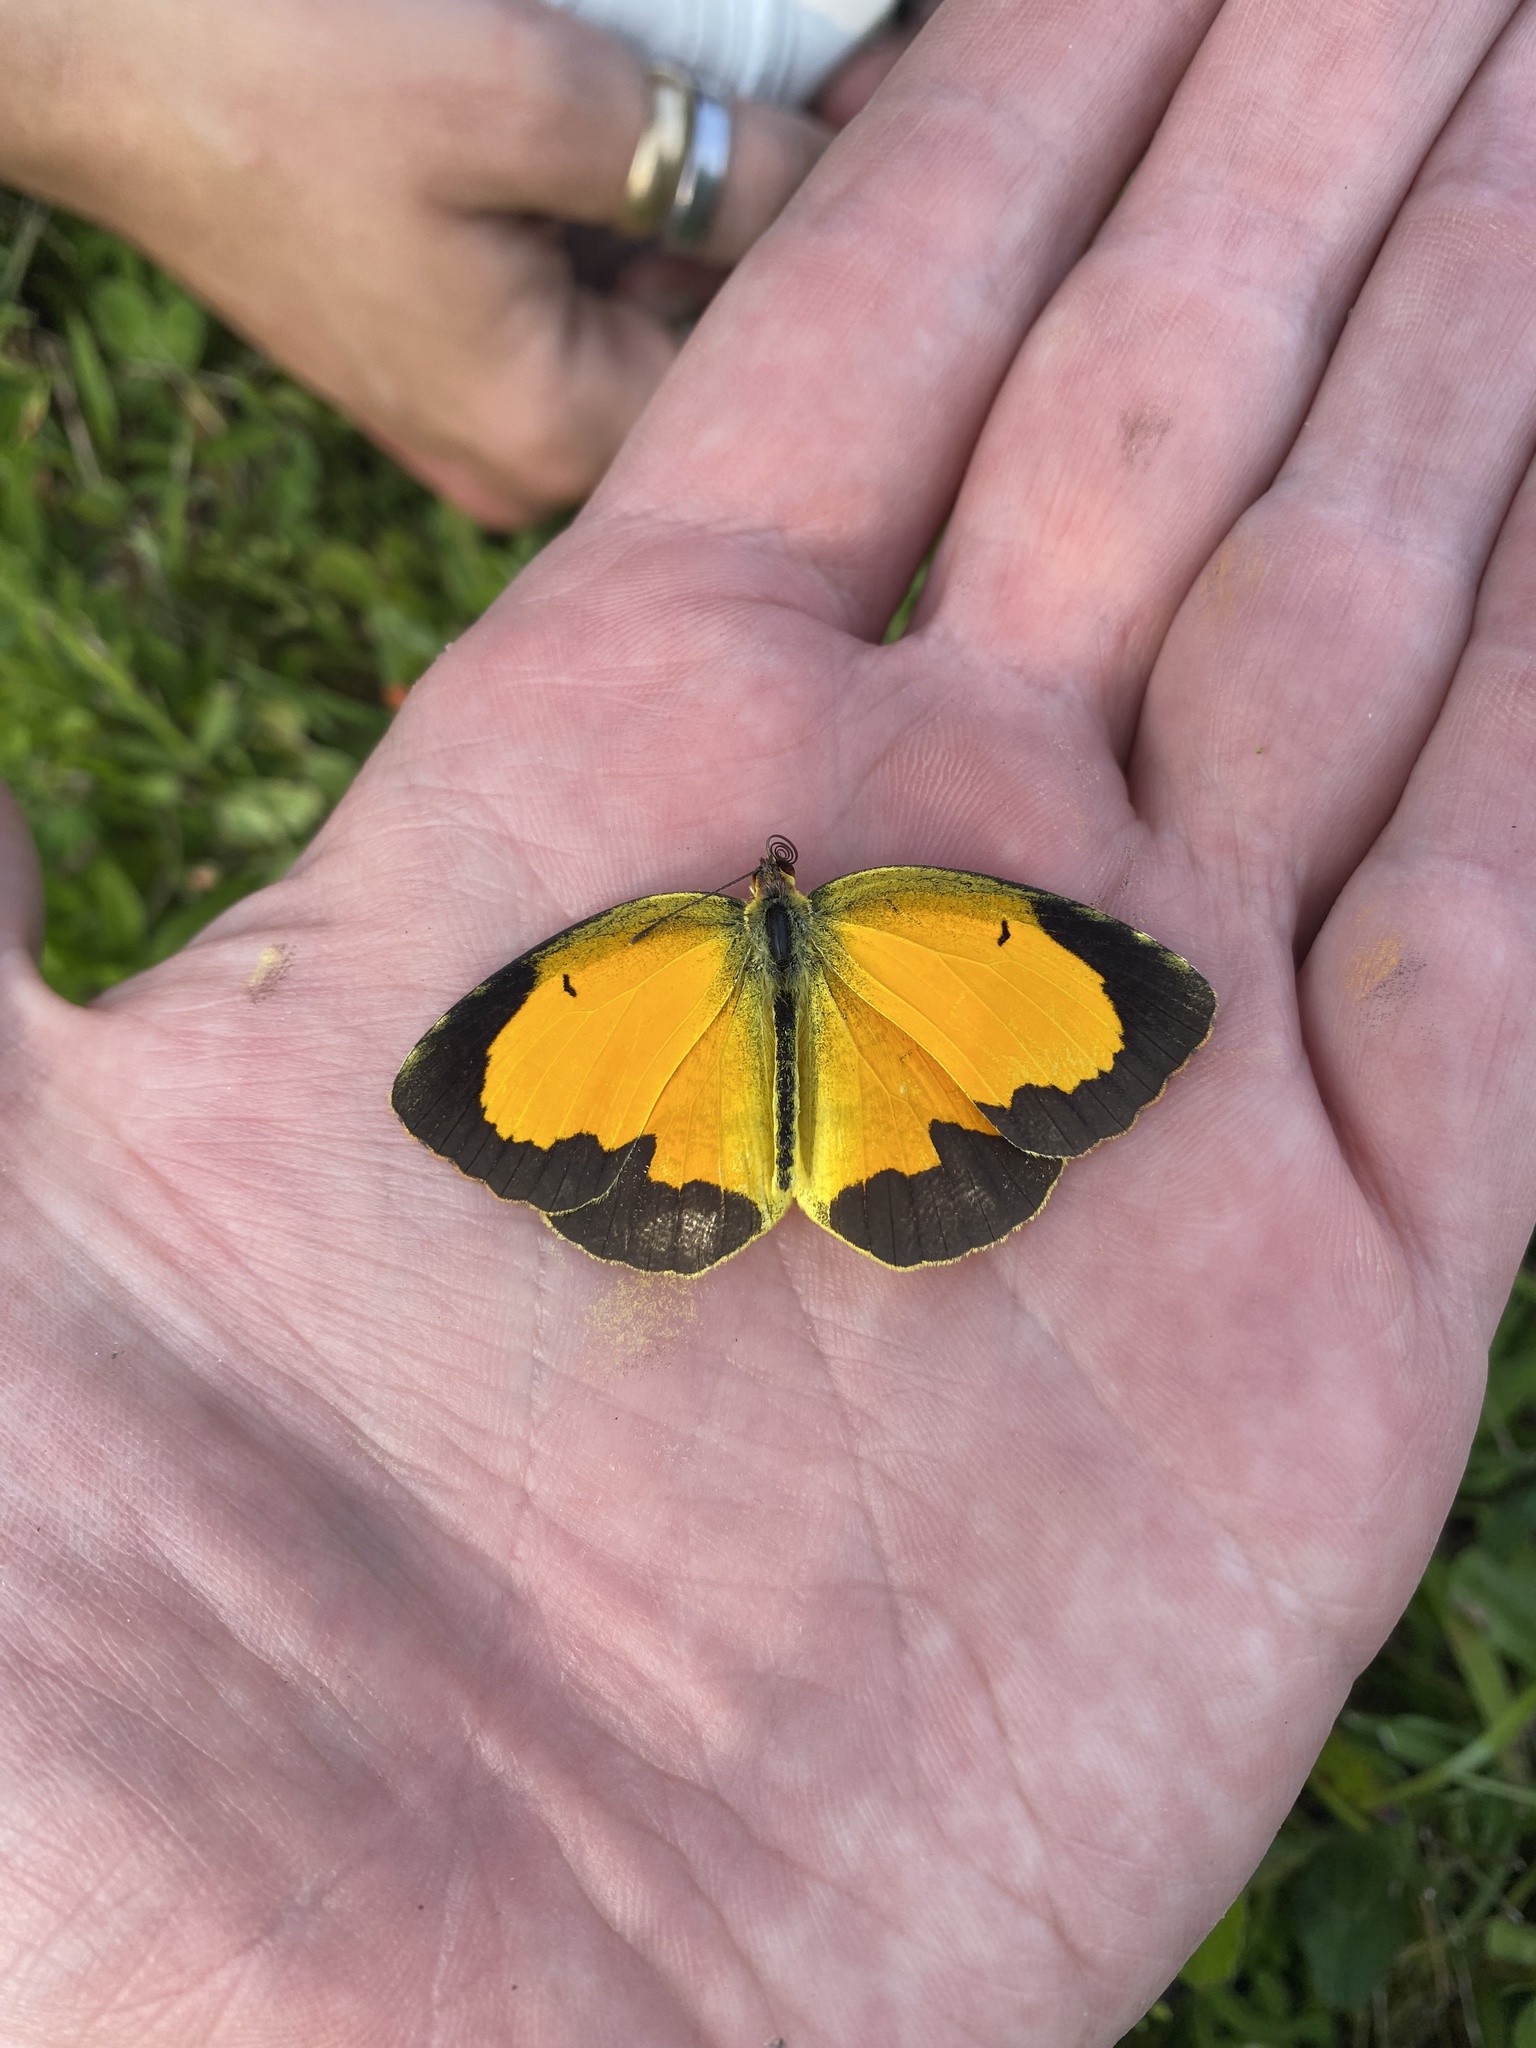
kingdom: Animalia
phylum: Arthropoda
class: Insecta
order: Lepidoptera
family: Pieridae
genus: Abaeis
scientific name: Abaeis nicippe
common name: Sleepy orange
